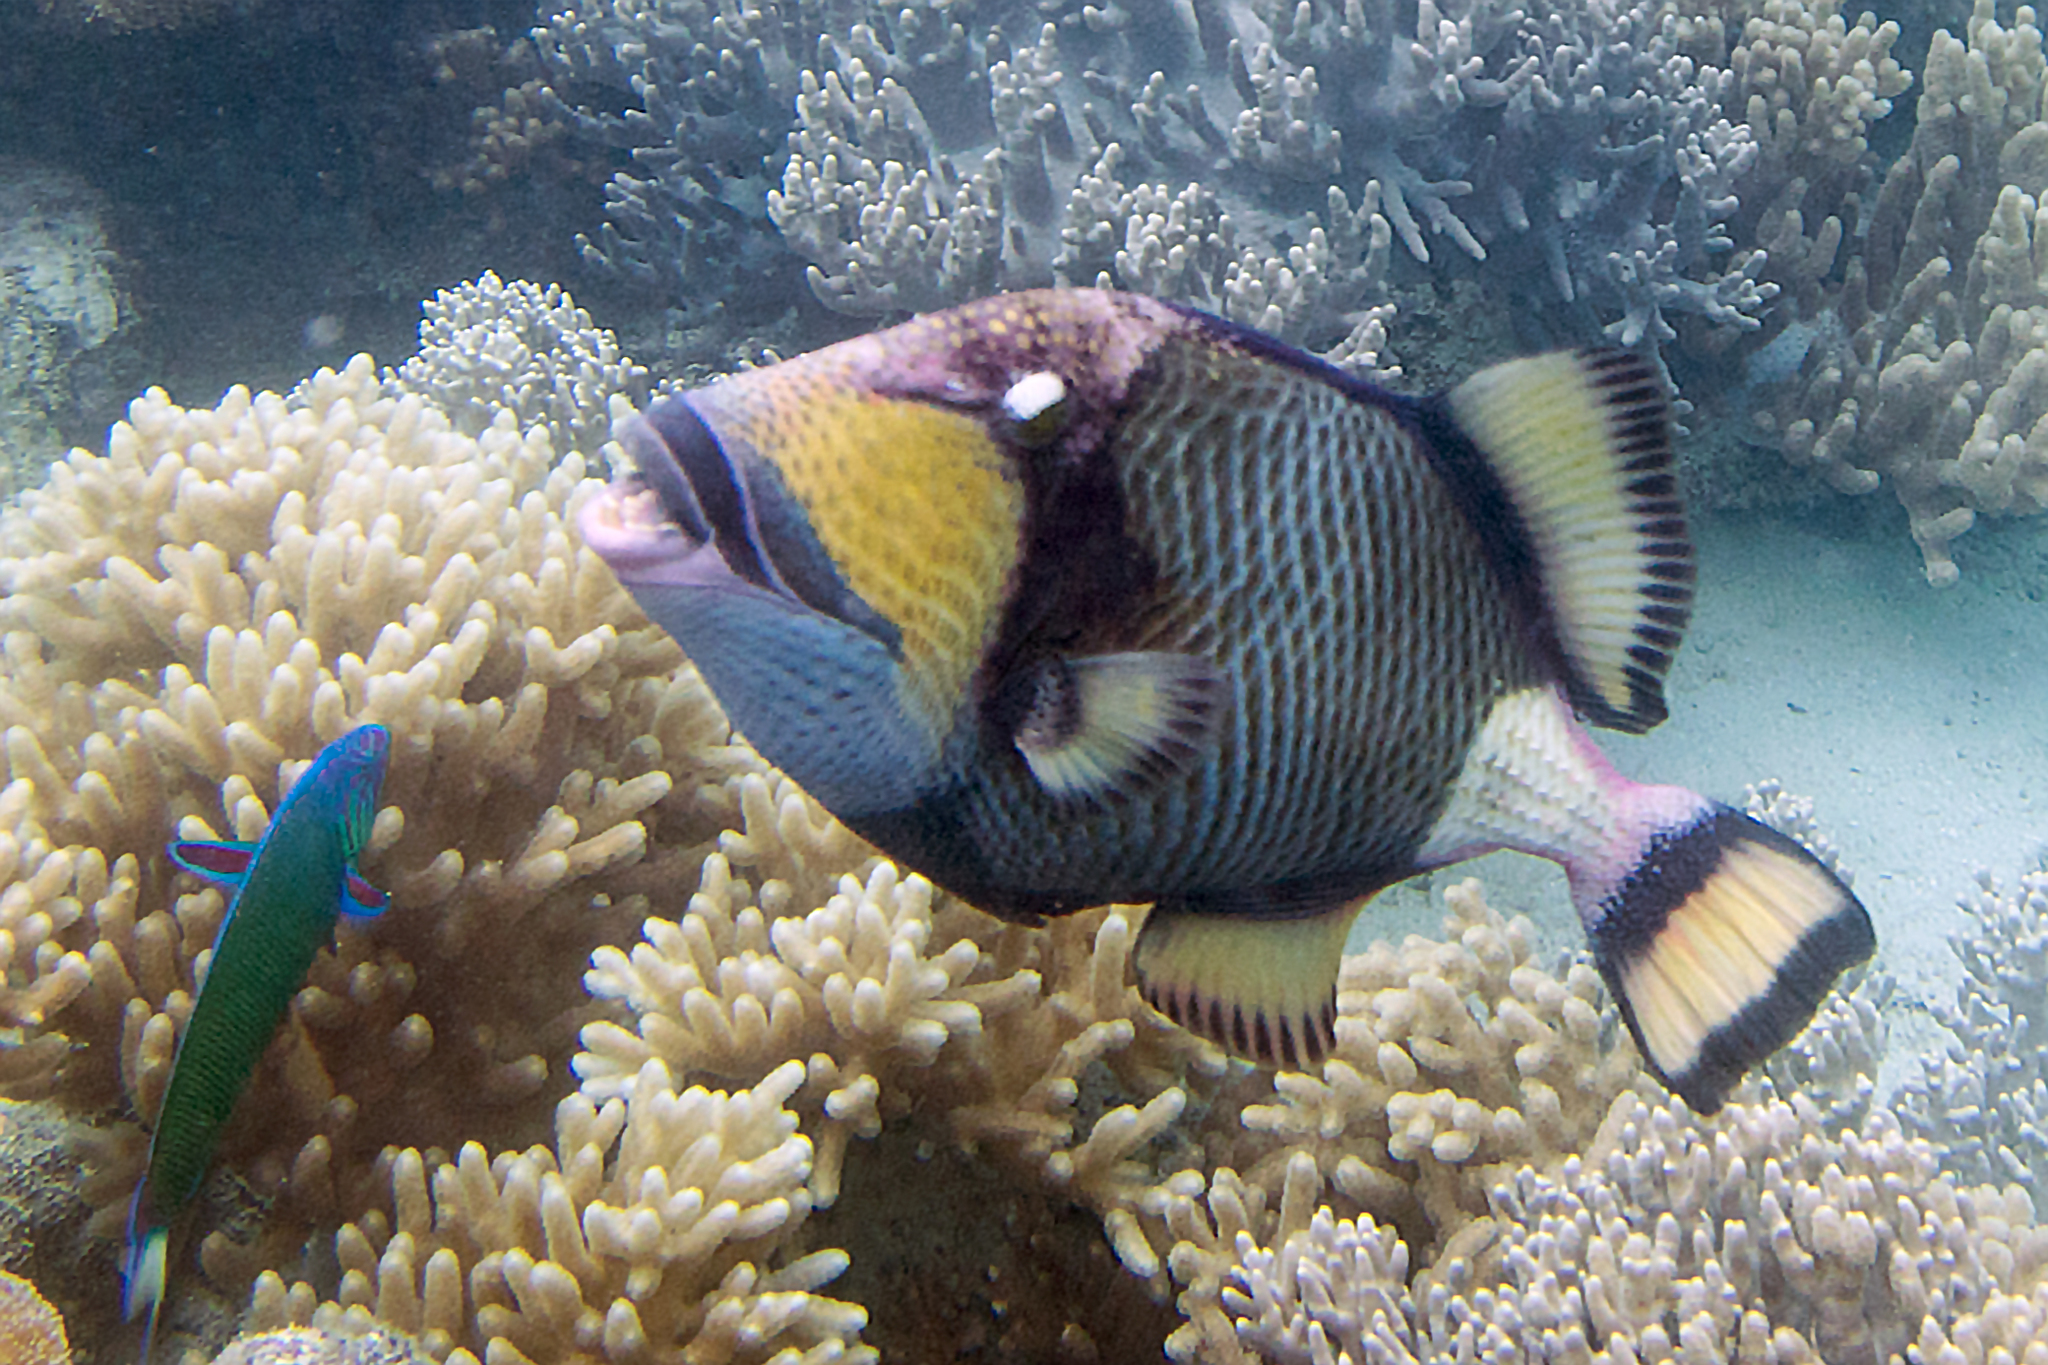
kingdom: Animalia
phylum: Chordata
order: Perciformes
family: Labridae
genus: Thalassoma
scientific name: Thalassoma lunare
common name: Blue wrasse
